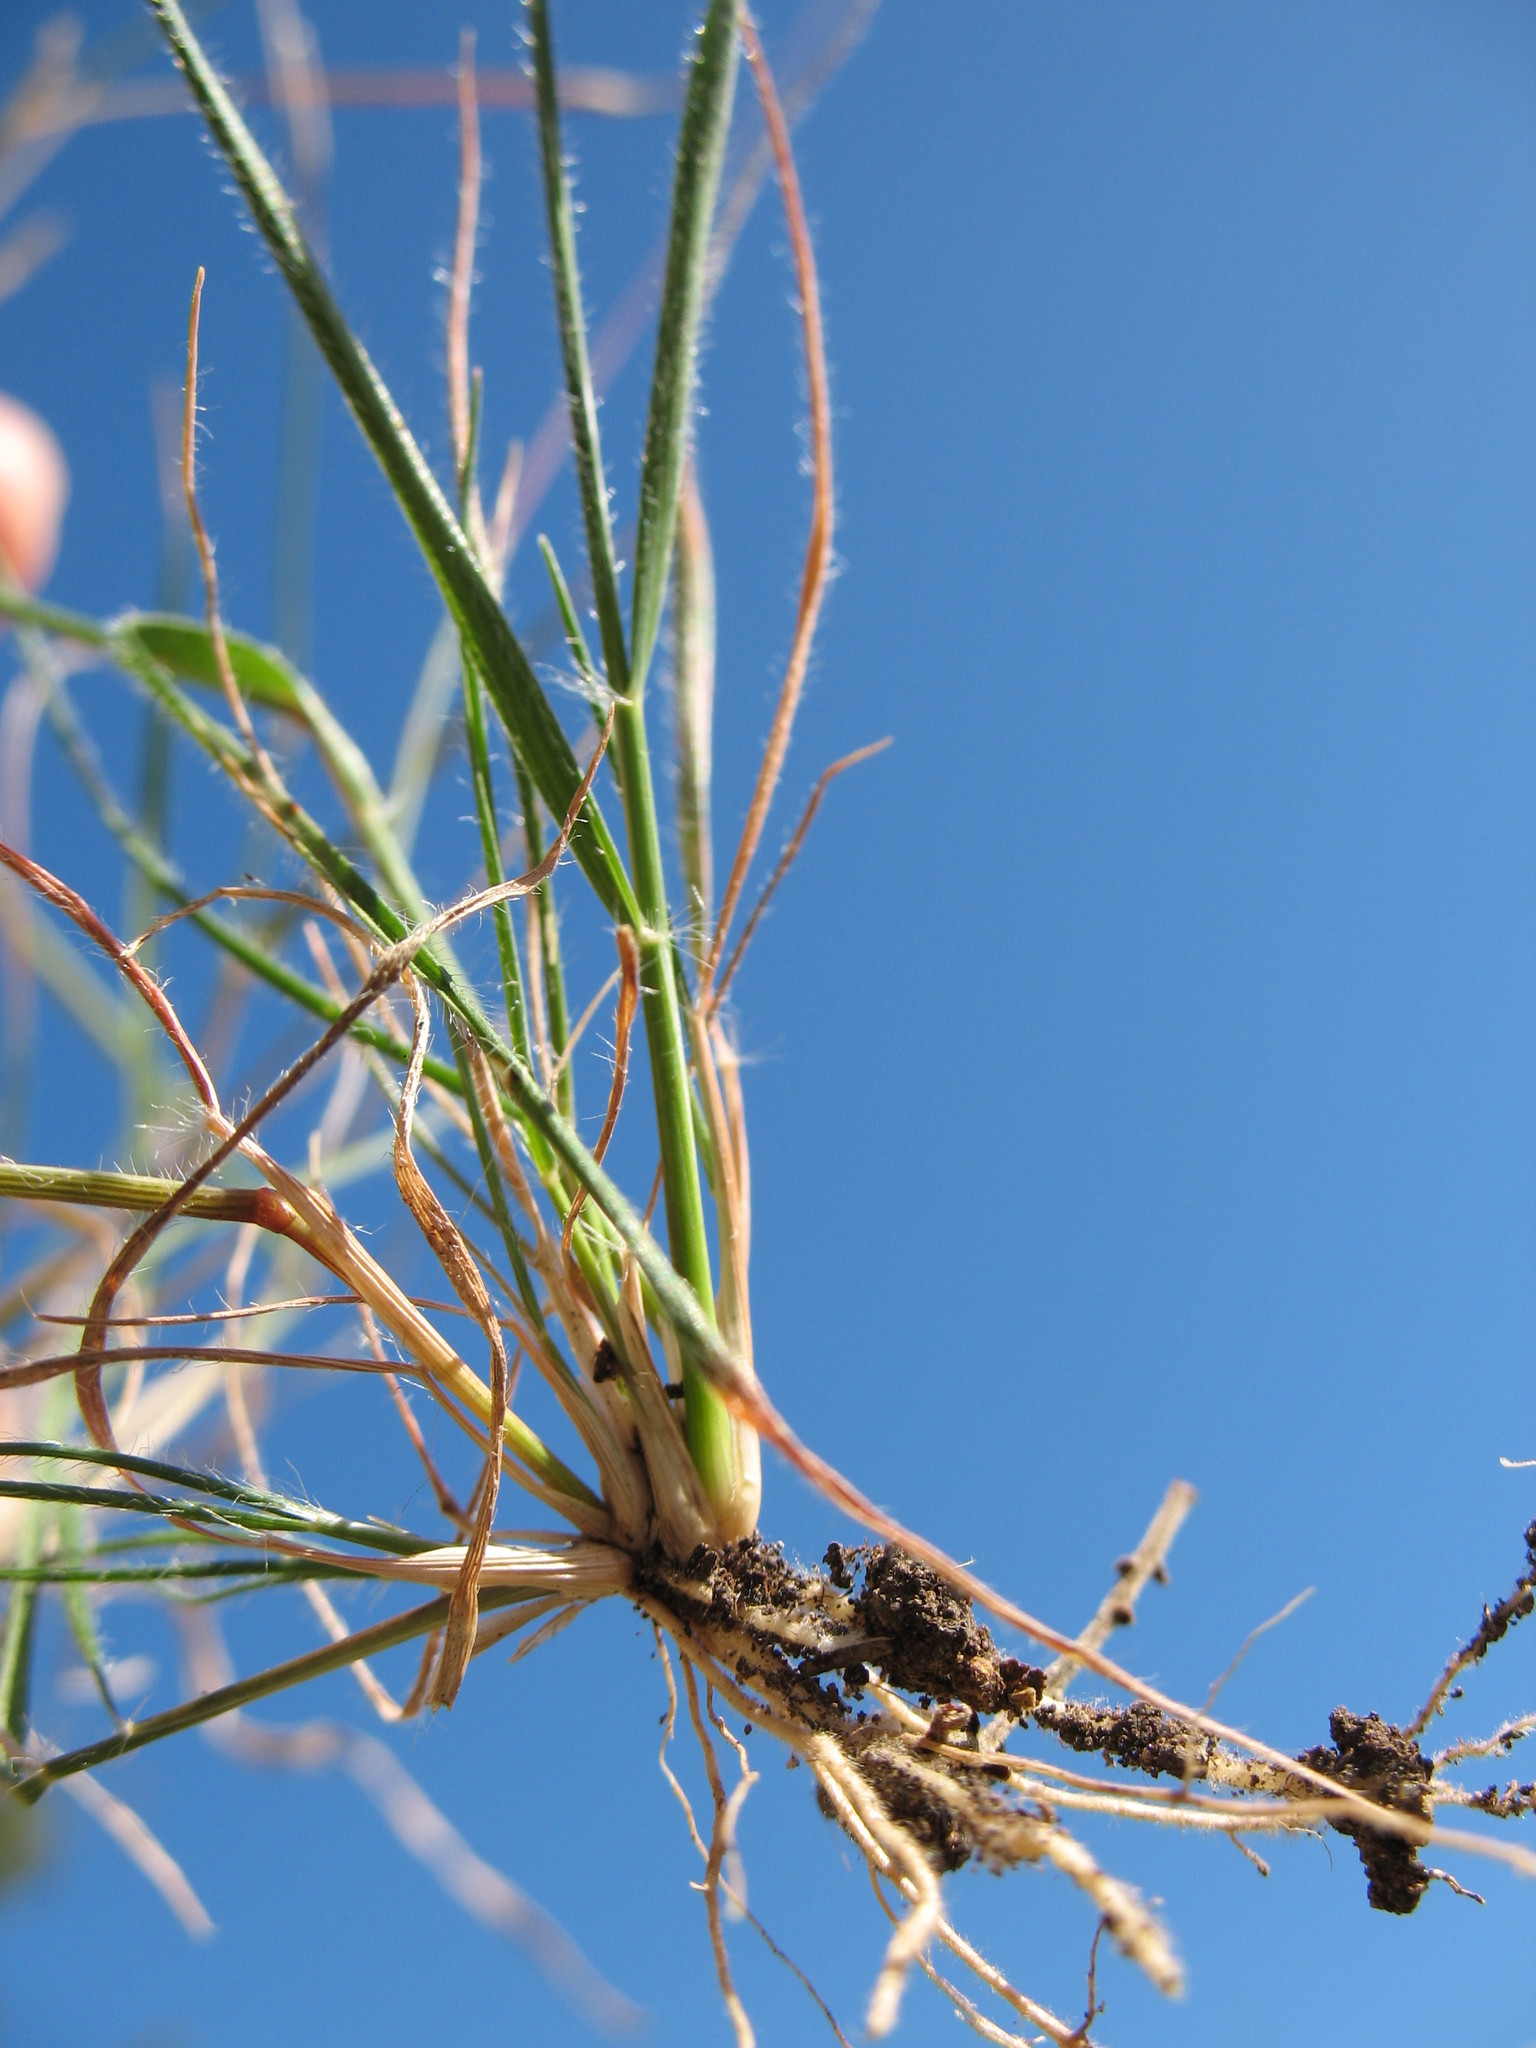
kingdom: Plantae
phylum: Tracheophyta
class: Liliopsida
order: Poales
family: Poaceae
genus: Rytidosperma
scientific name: Rytidosperma setaceum
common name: Small-flower wallaby grass
